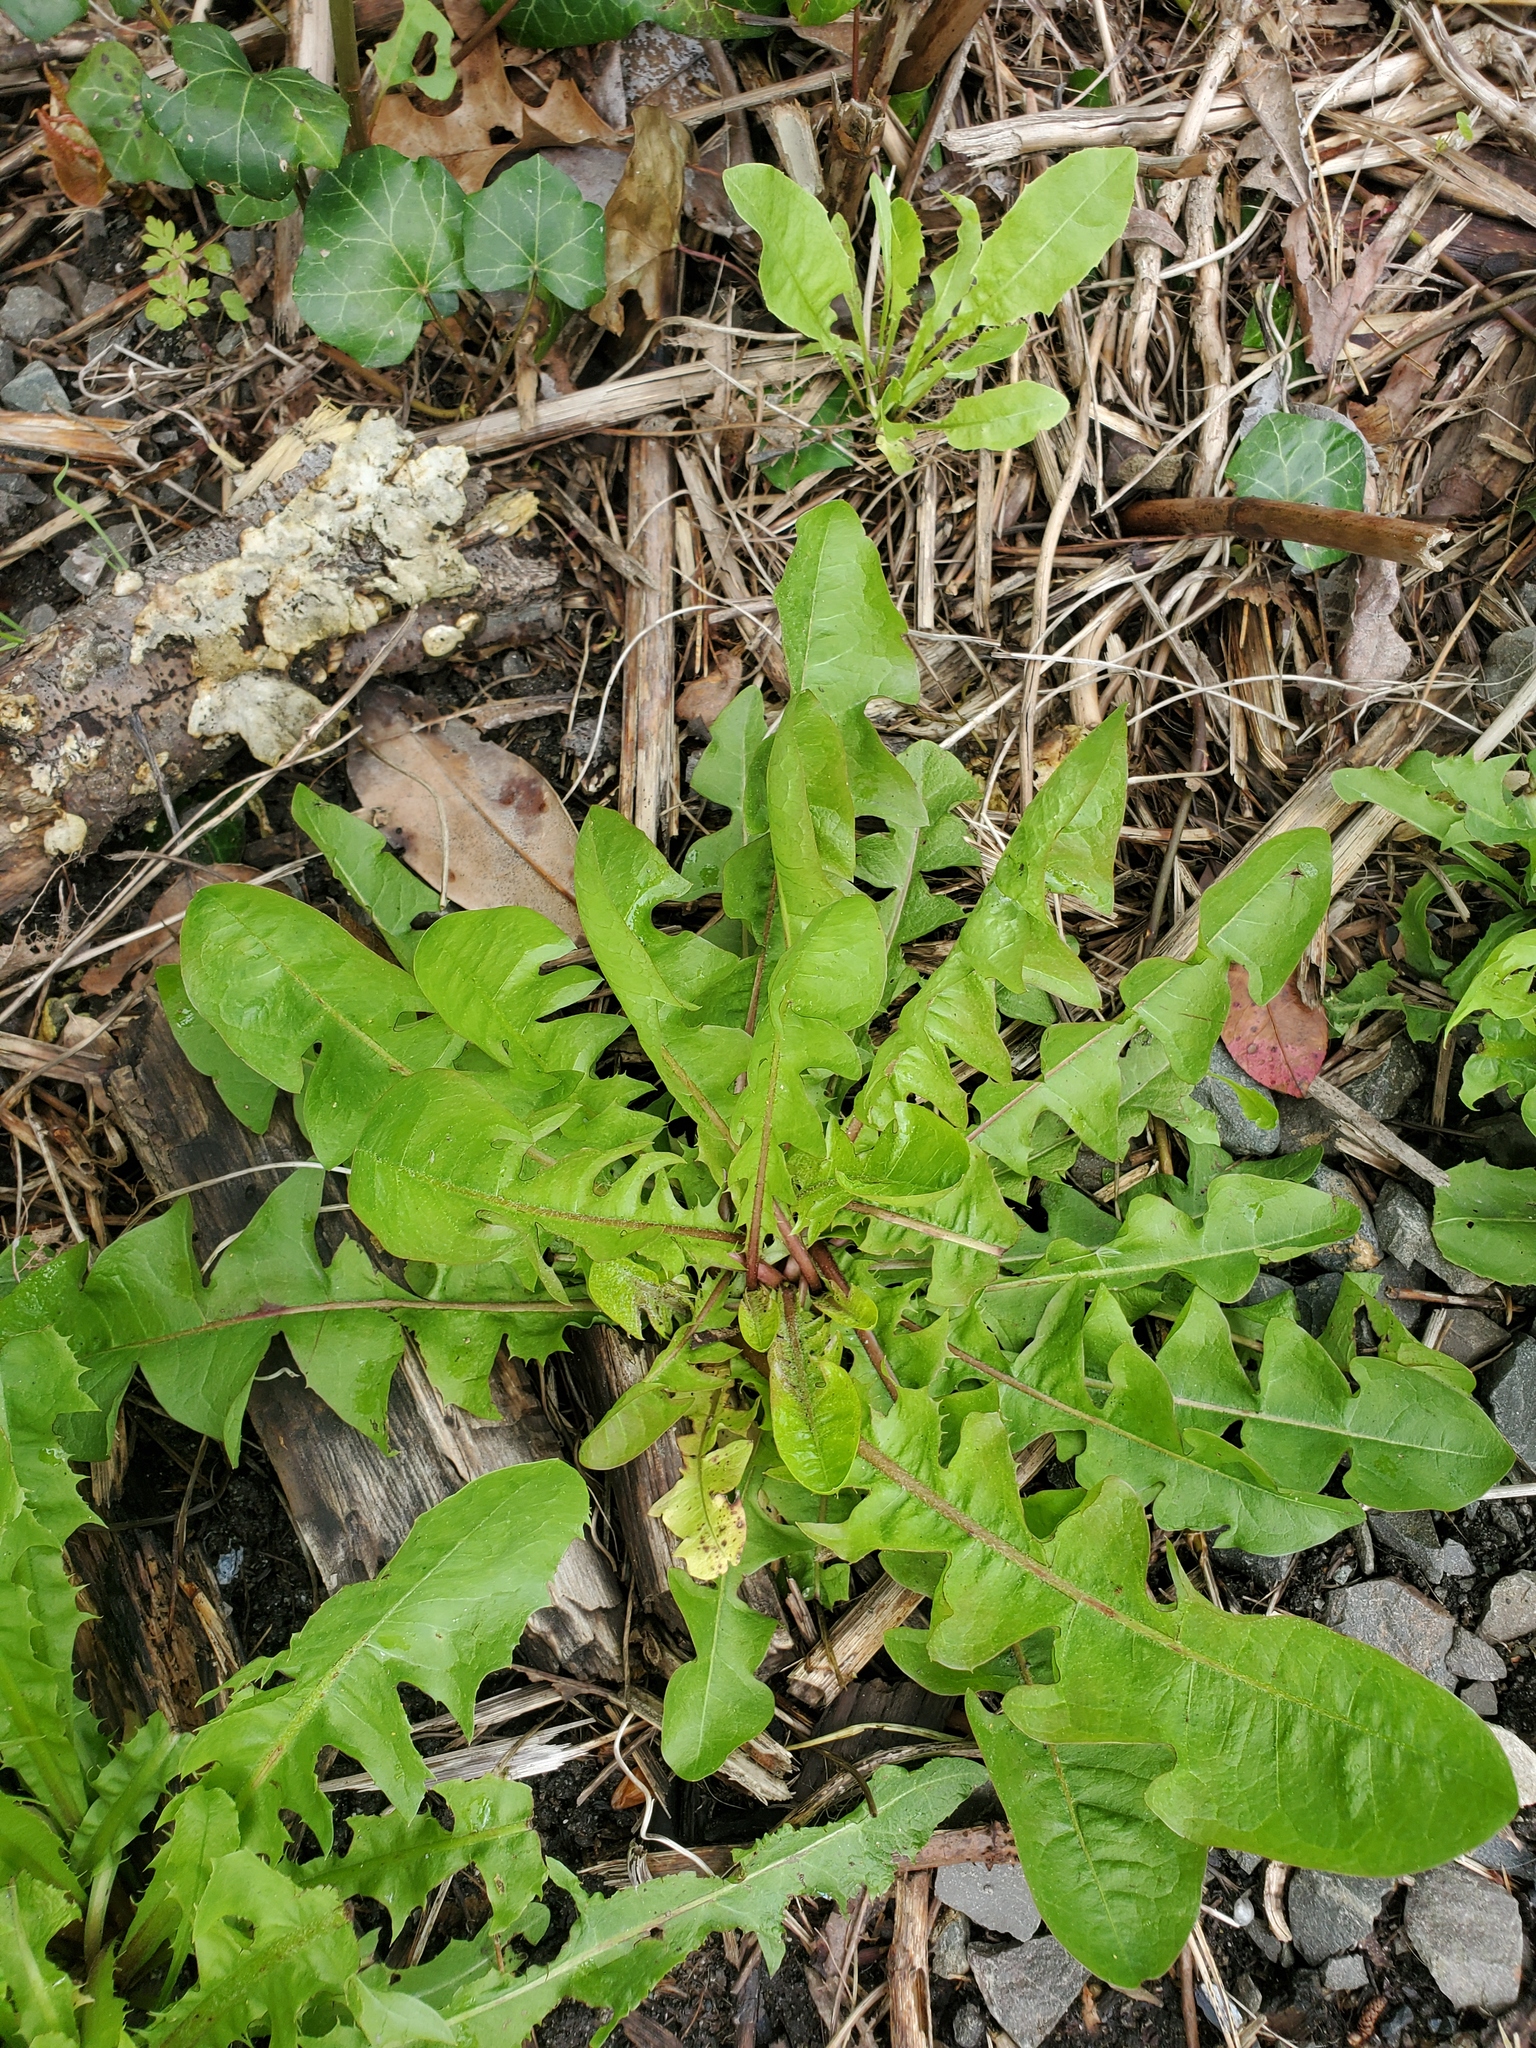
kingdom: Plantae
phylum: Tracheophyta
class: Magnoliopsida
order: Asterales
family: Asteraceae
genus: Taraxacum
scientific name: Taraxacum officinale
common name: Common dandelion
